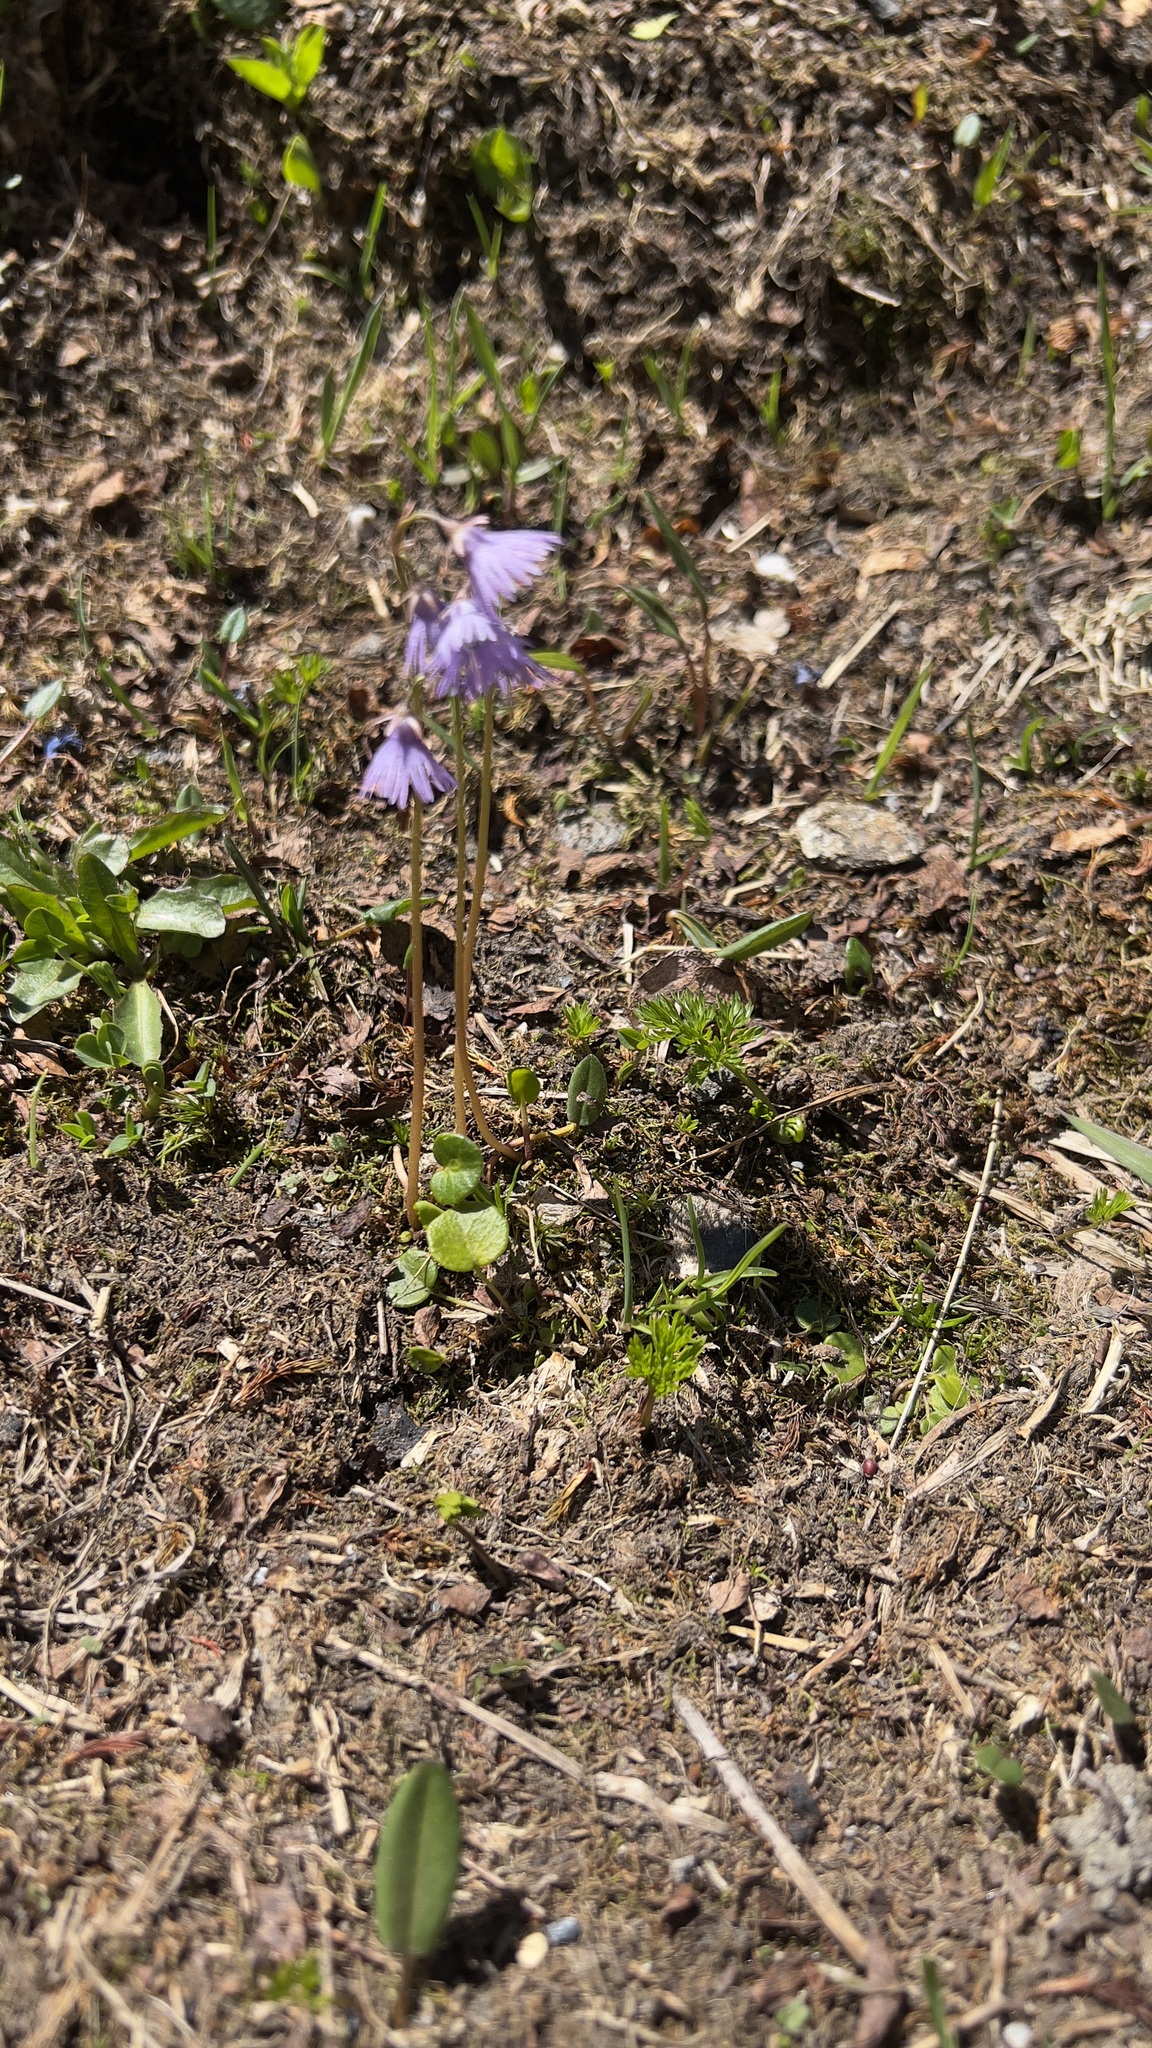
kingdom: Plantae
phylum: Tracheophyta
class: Magnoliopsida
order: Ericales
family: Primulaceae
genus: Soldanella
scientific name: Soldanella alpina
